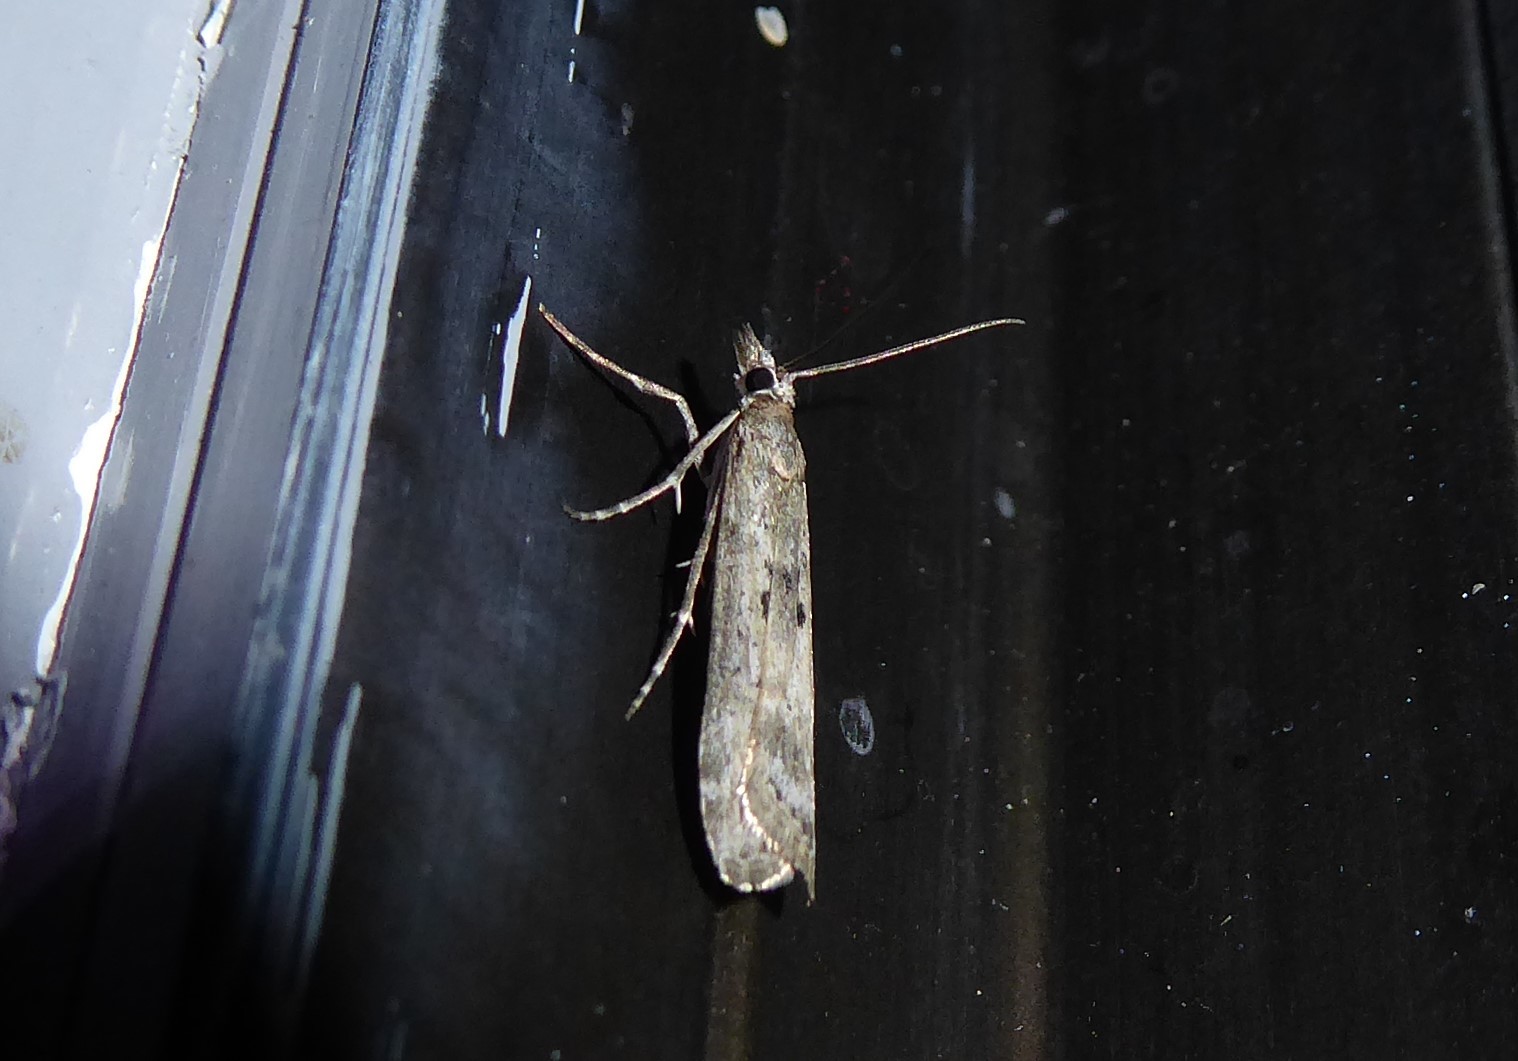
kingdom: Animalia
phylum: Arthropoda
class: Insecta
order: Lepidoptera
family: Crambidae
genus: Eudonia
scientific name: Eudonia leptalea
